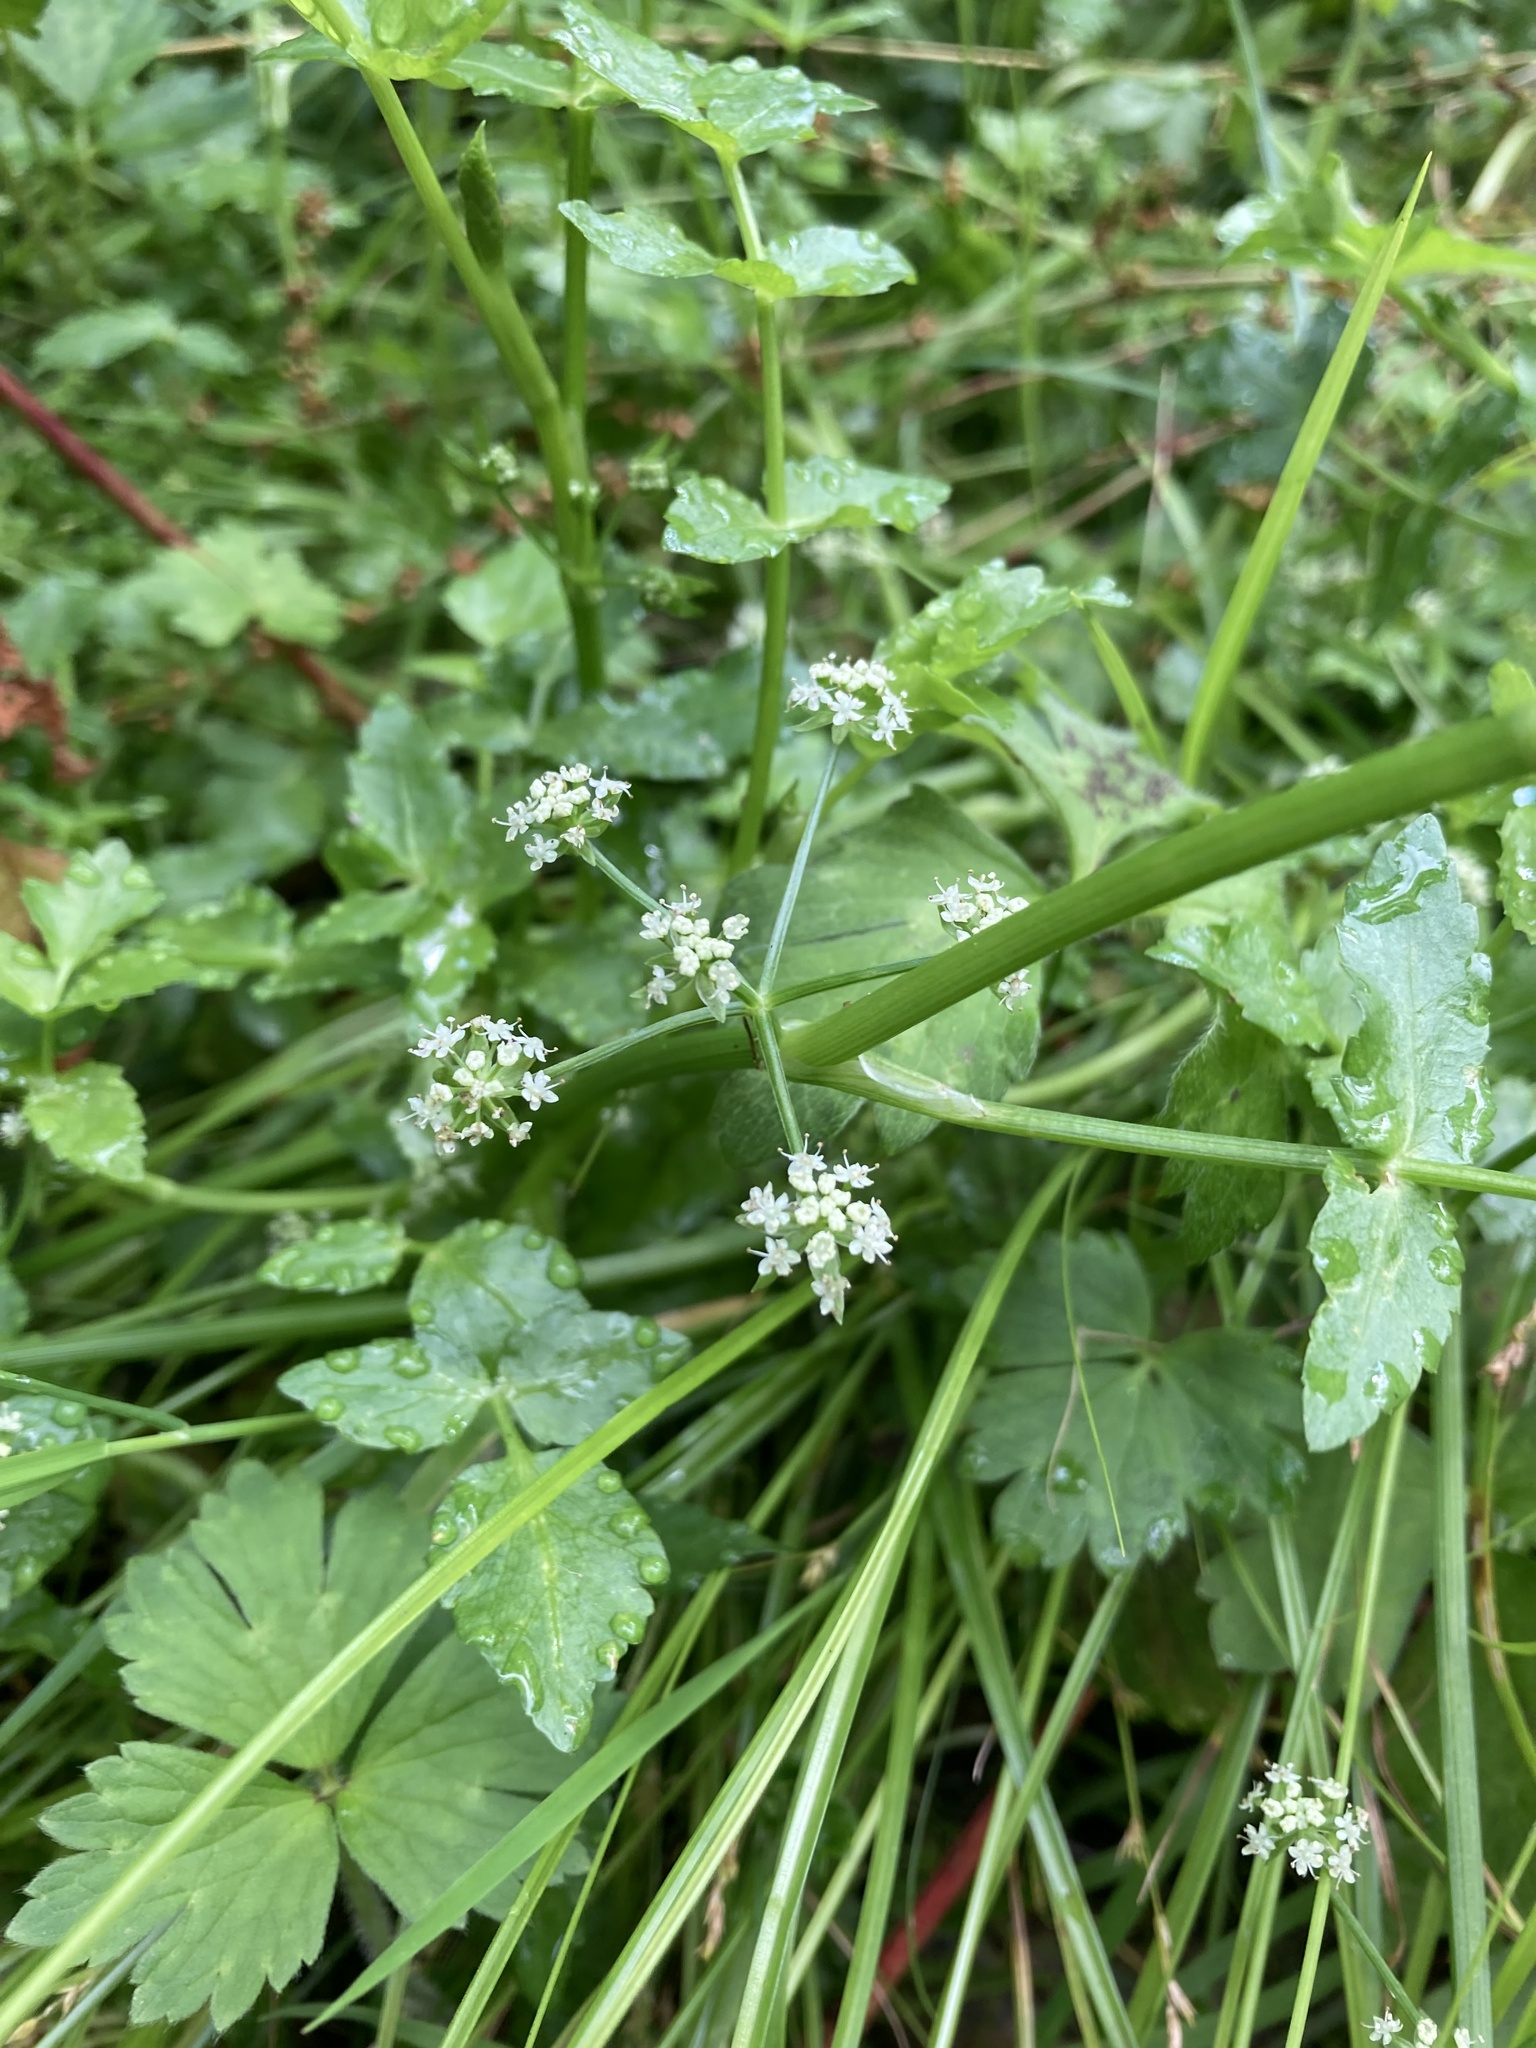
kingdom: Plantae
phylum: Tracheophyta
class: Magnoliopsida
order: Apiales
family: Apiaceae
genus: Helosciadium
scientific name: Helosciadium nodiflorum
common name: Fool's-watercress
